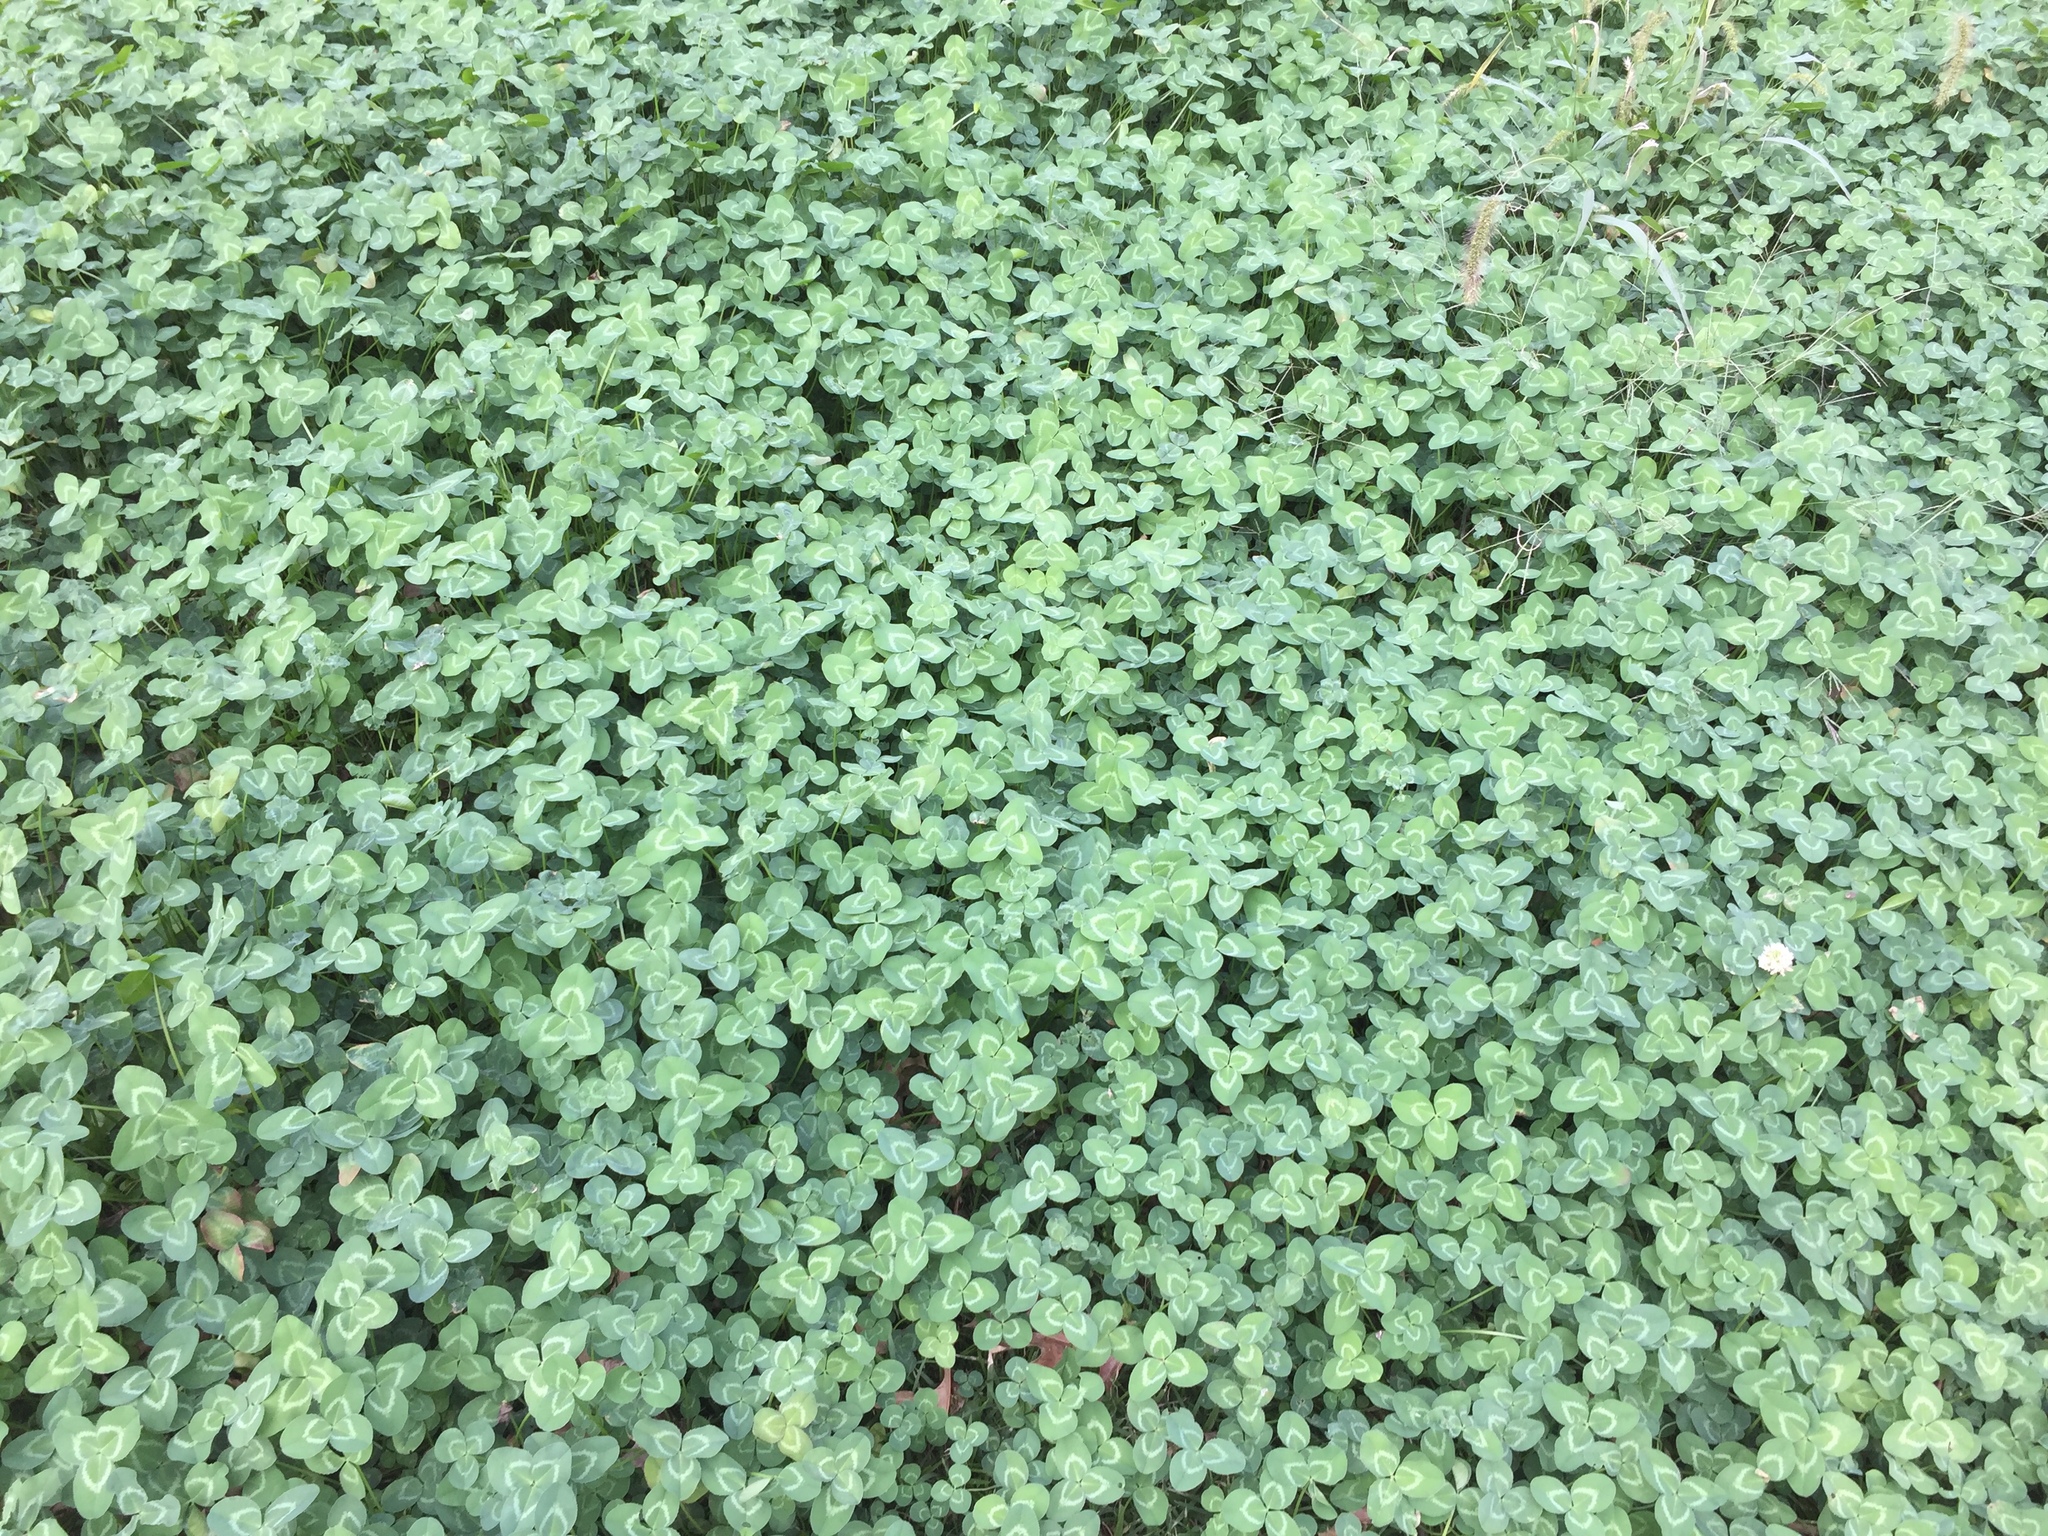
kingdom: Plantae
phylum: Tracheophyta
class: Magnoliopsida
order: Fabales
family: Fabaceae
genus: Trifolium
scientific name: Trifolium repens
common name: White clover
